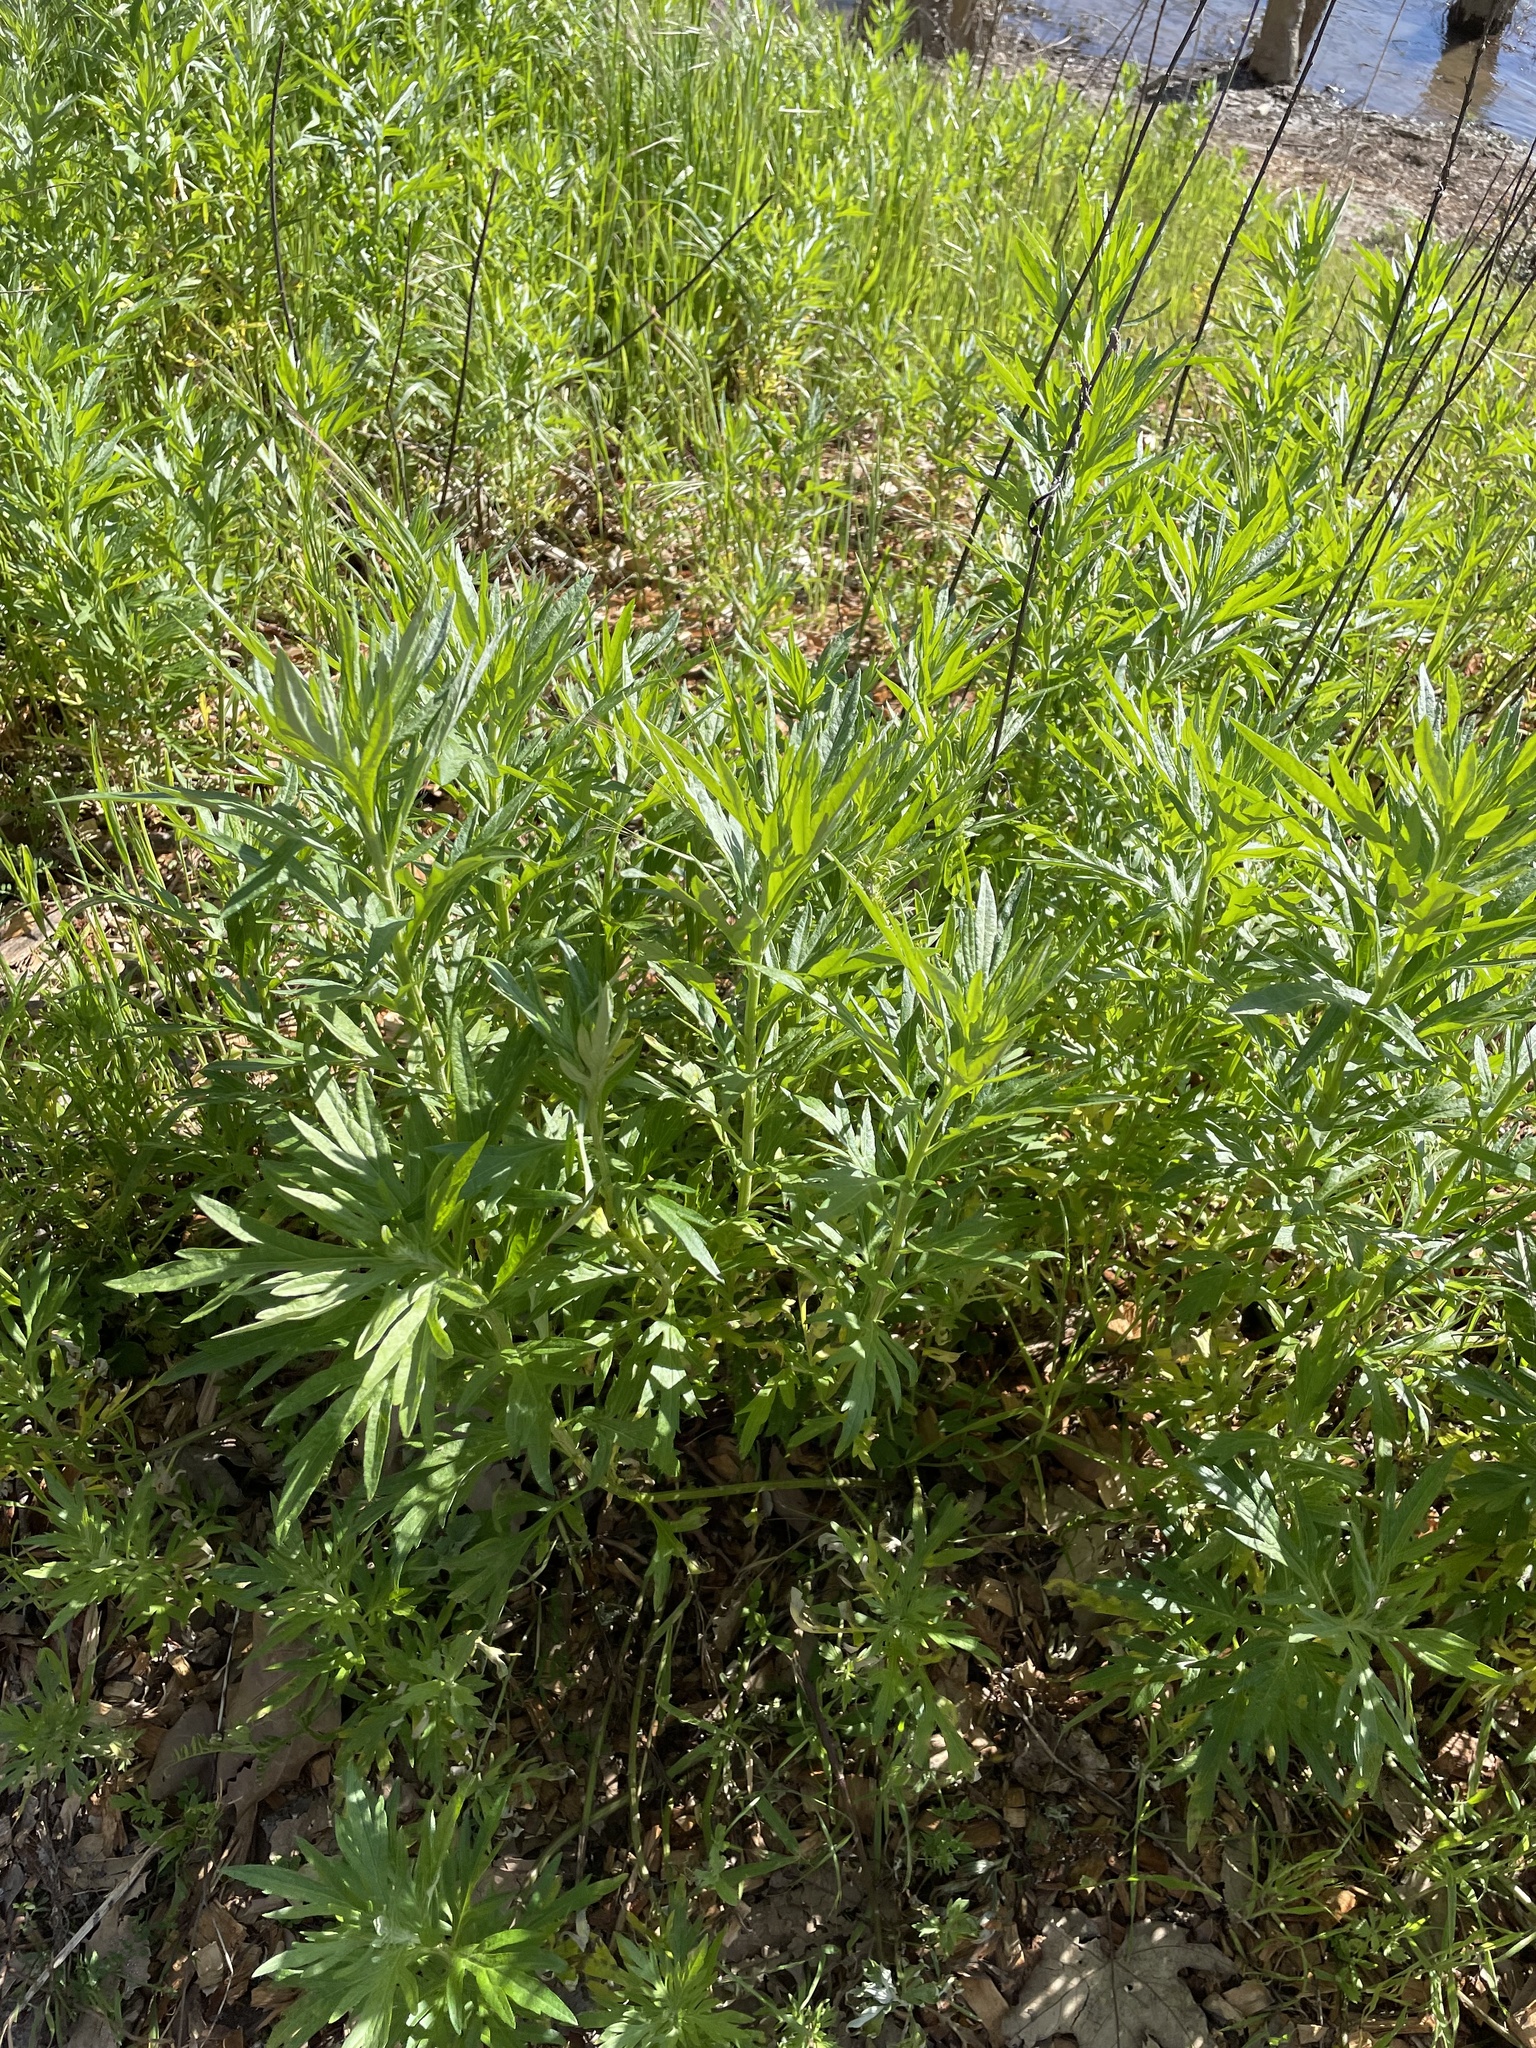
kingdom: Plantae
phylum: Tracheophyta
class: Magnoliopsida
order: Asterales
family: Asteraceae
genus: Artemisia
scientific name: Artemisia douglasiana
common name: Northwest mugwort
